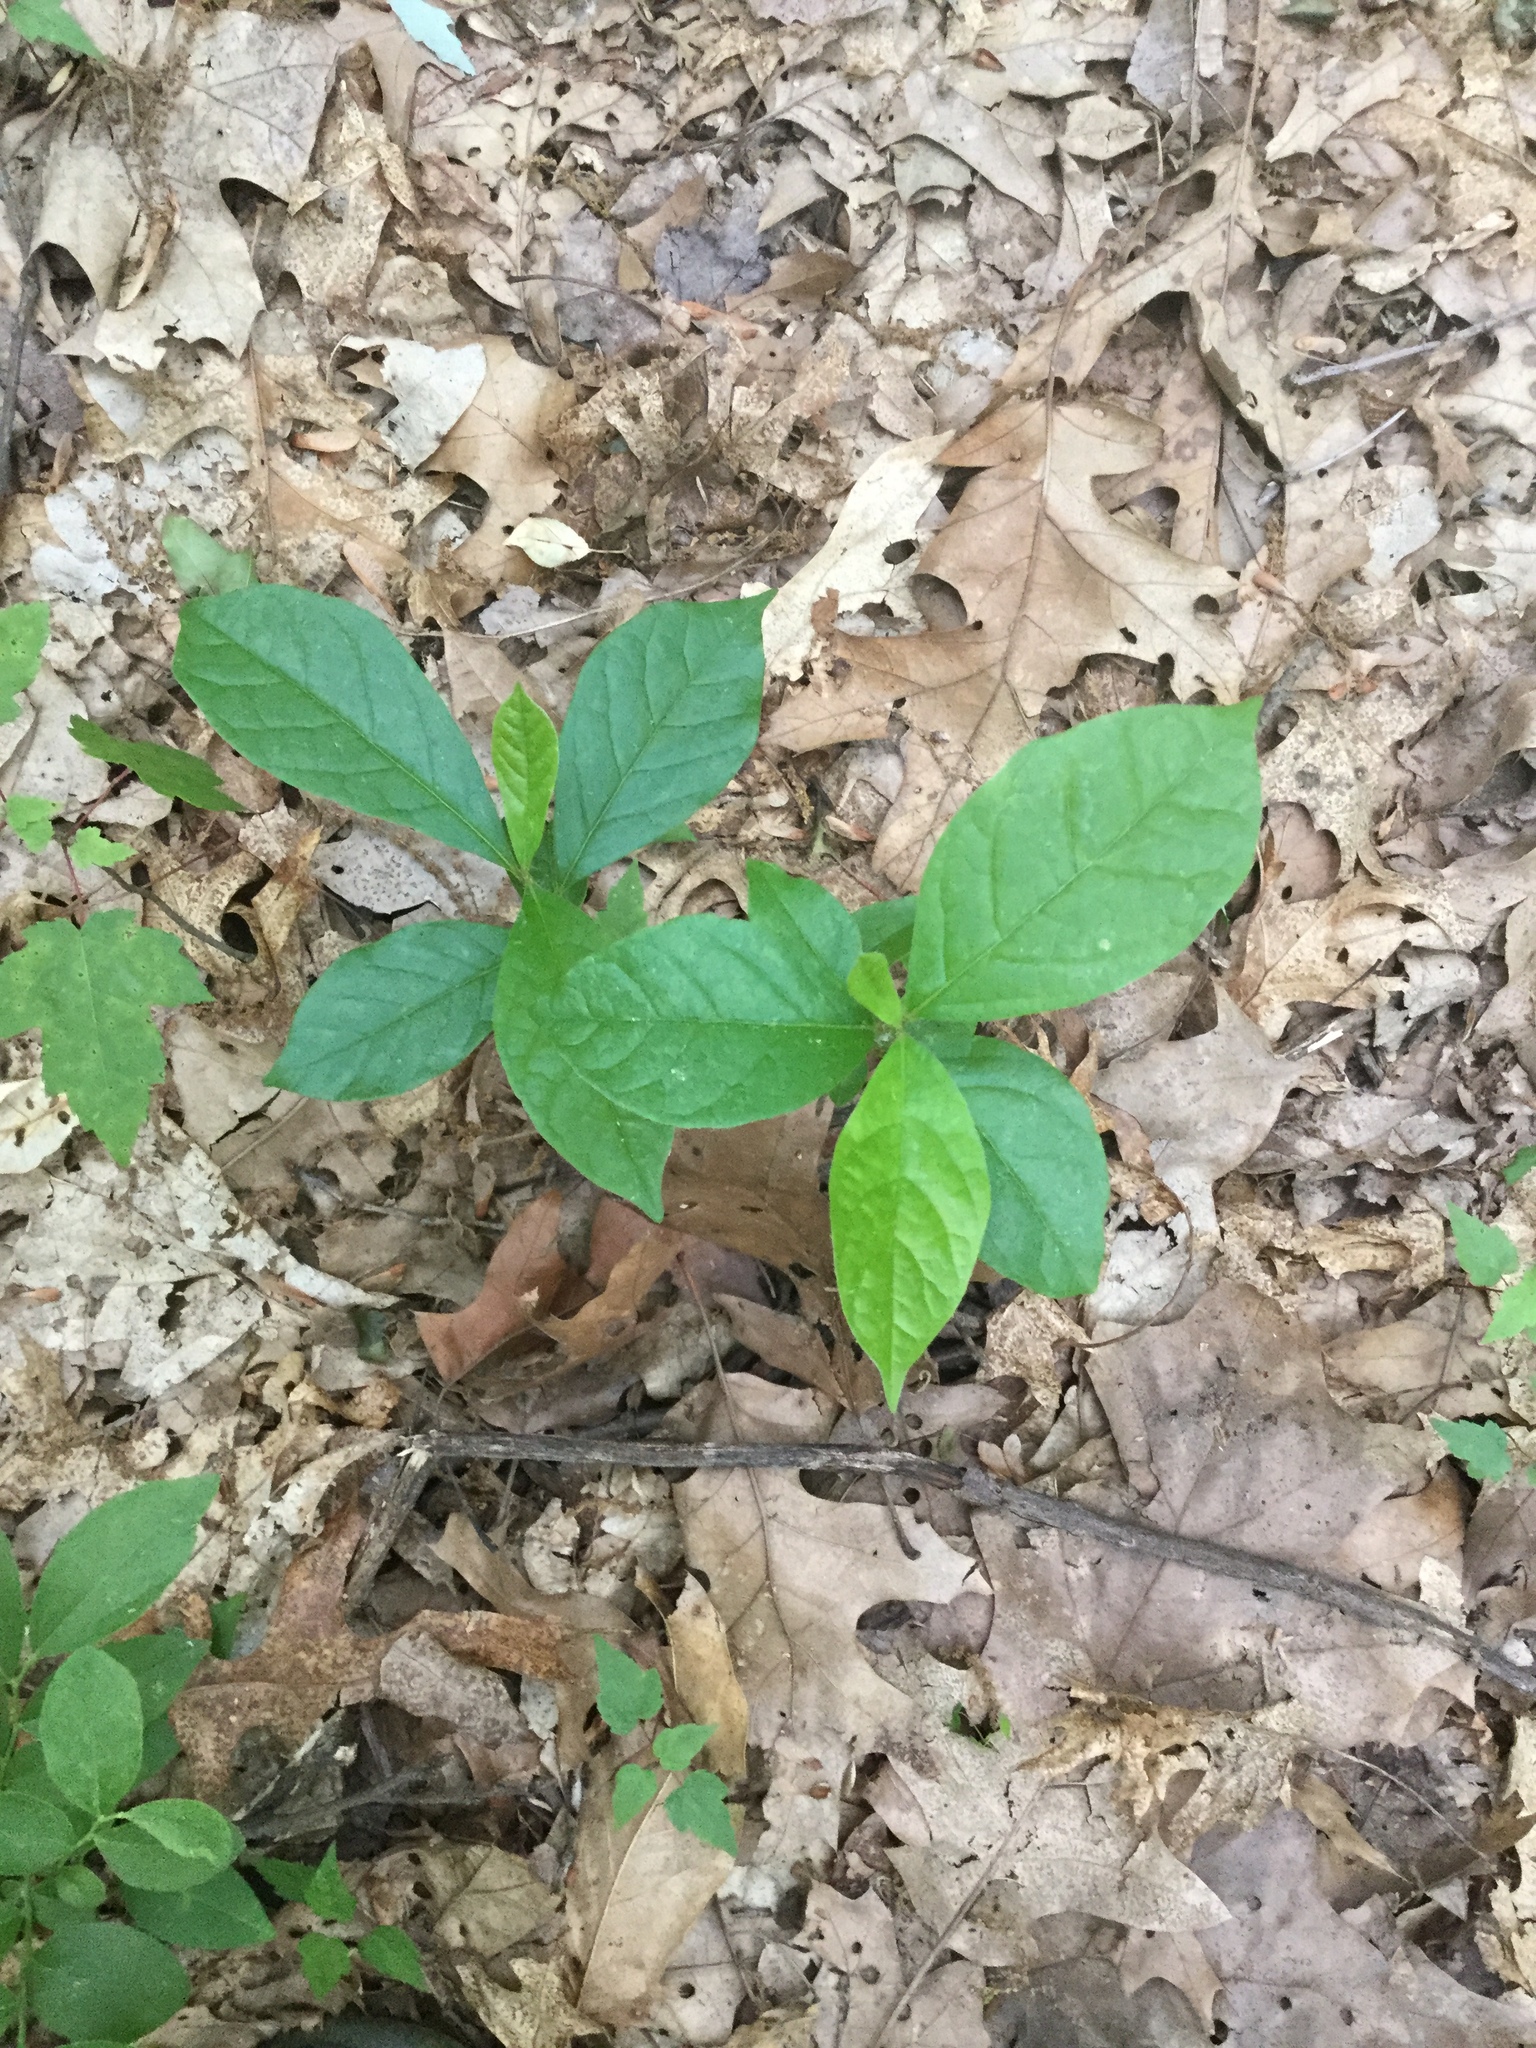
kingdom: Plantae
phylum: Tracheophyta
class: Magnoliopsida
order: Cornales
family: Nyssaceae
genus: Nyssa
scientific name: Nyssa sylvatica
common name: Black tupelo
